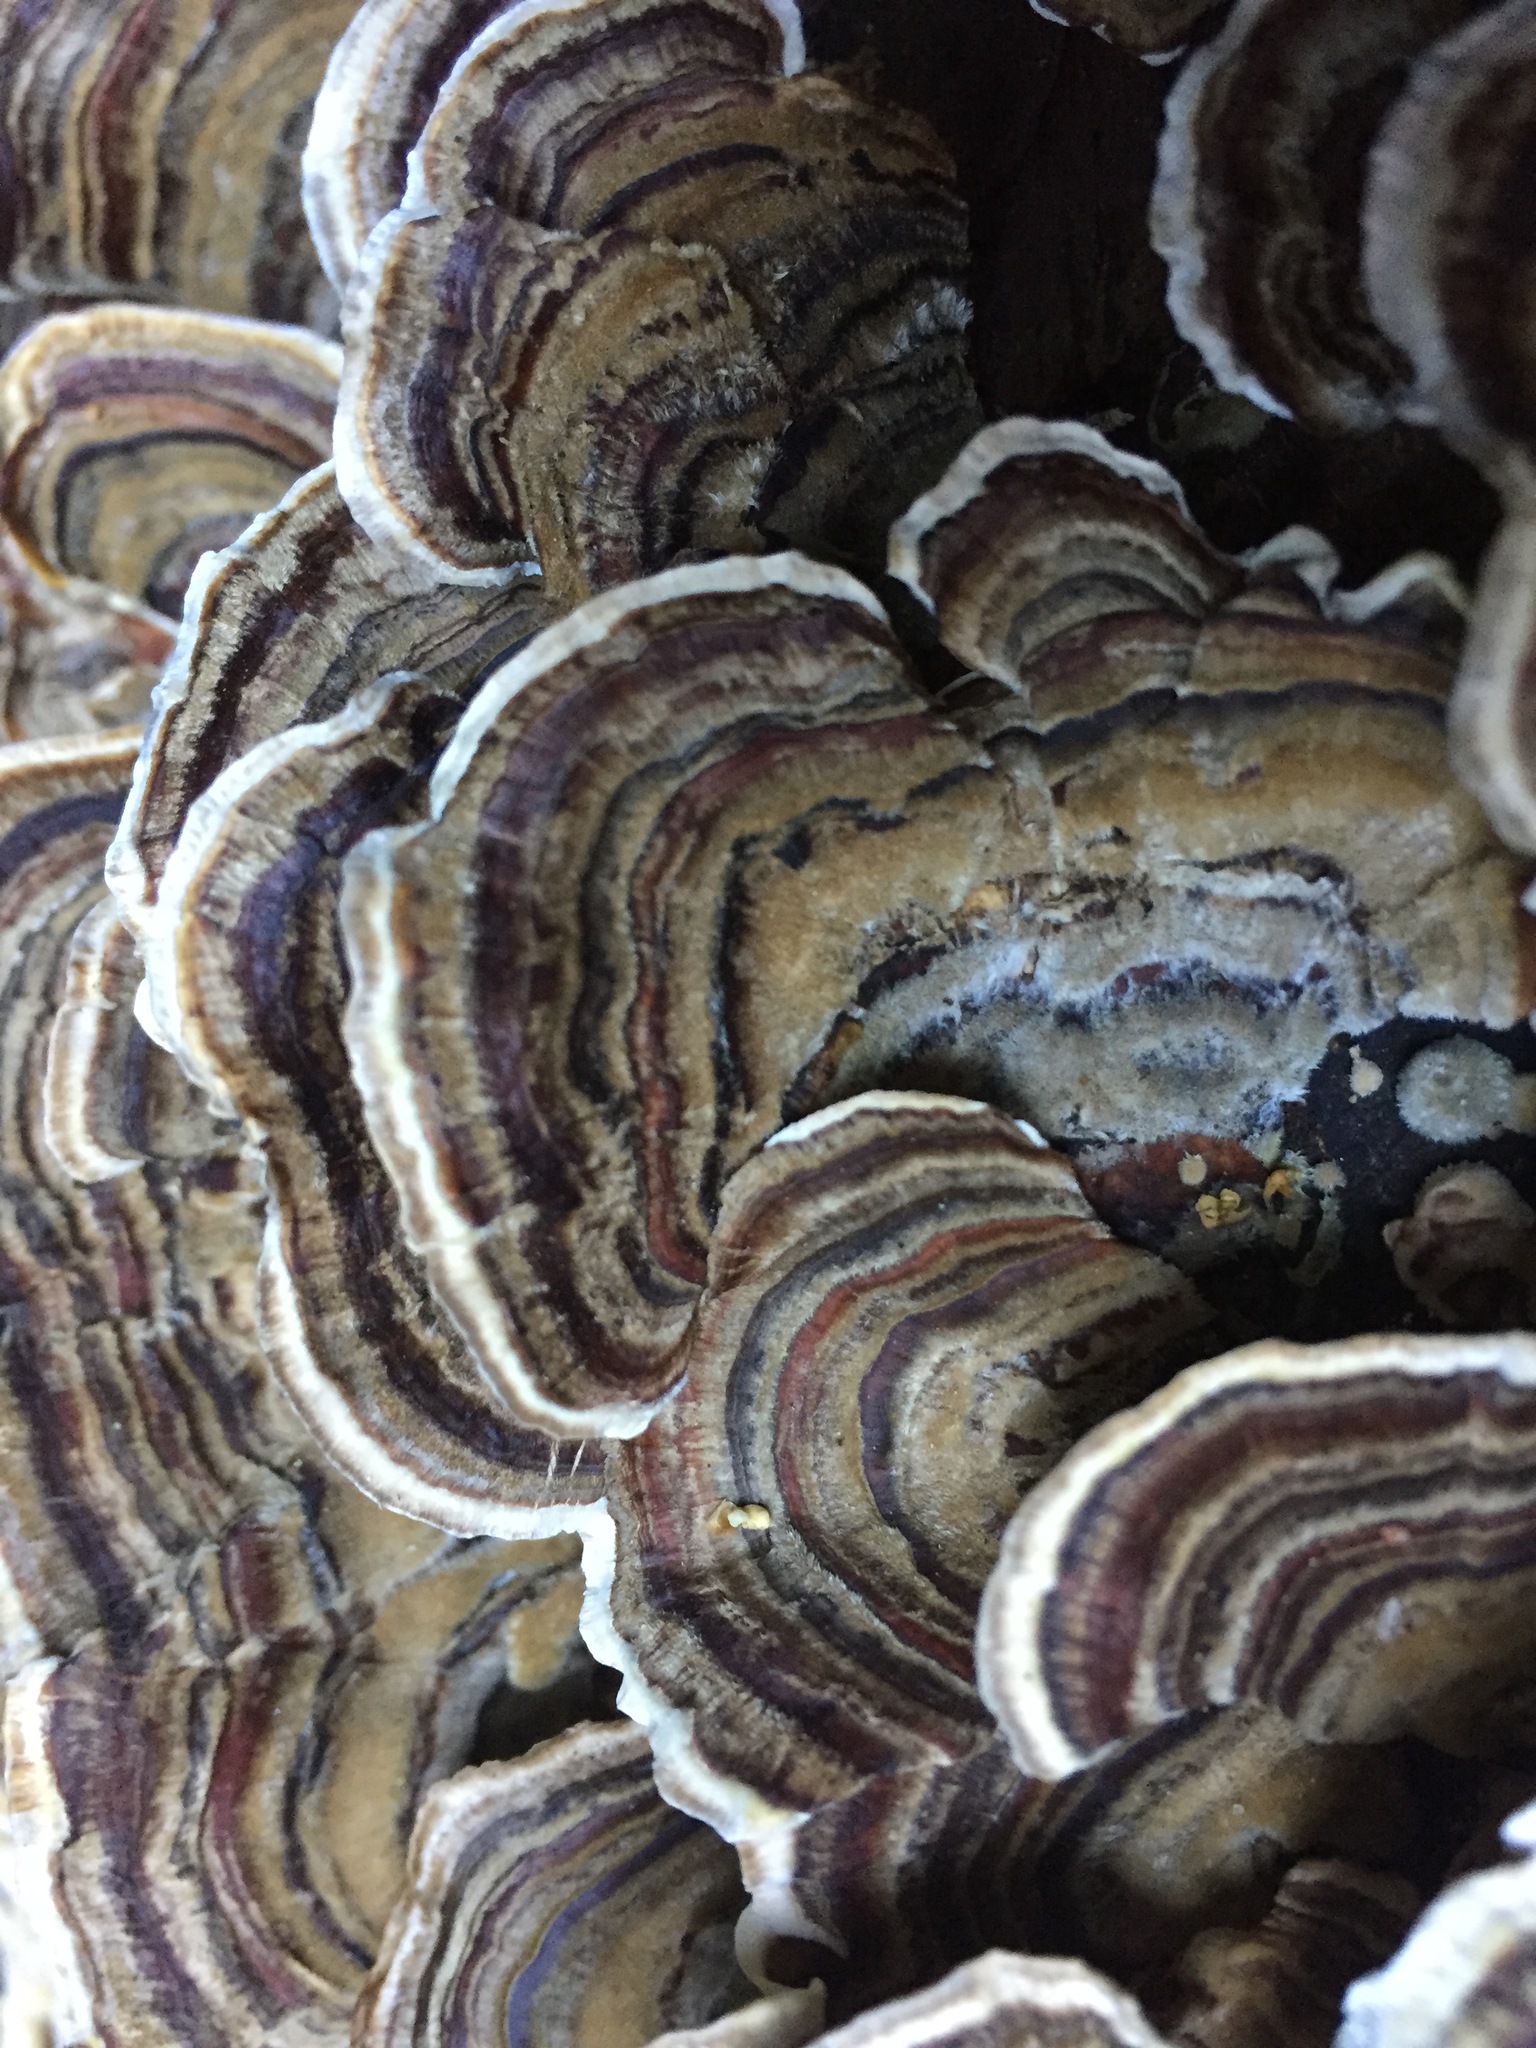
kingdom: Fungi
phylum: Basidiomycota
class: Agaricomycetes
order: Polyporales
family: Polyporaceae
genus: Trametes
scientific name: Trametes versicolor
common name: Turkeytail
